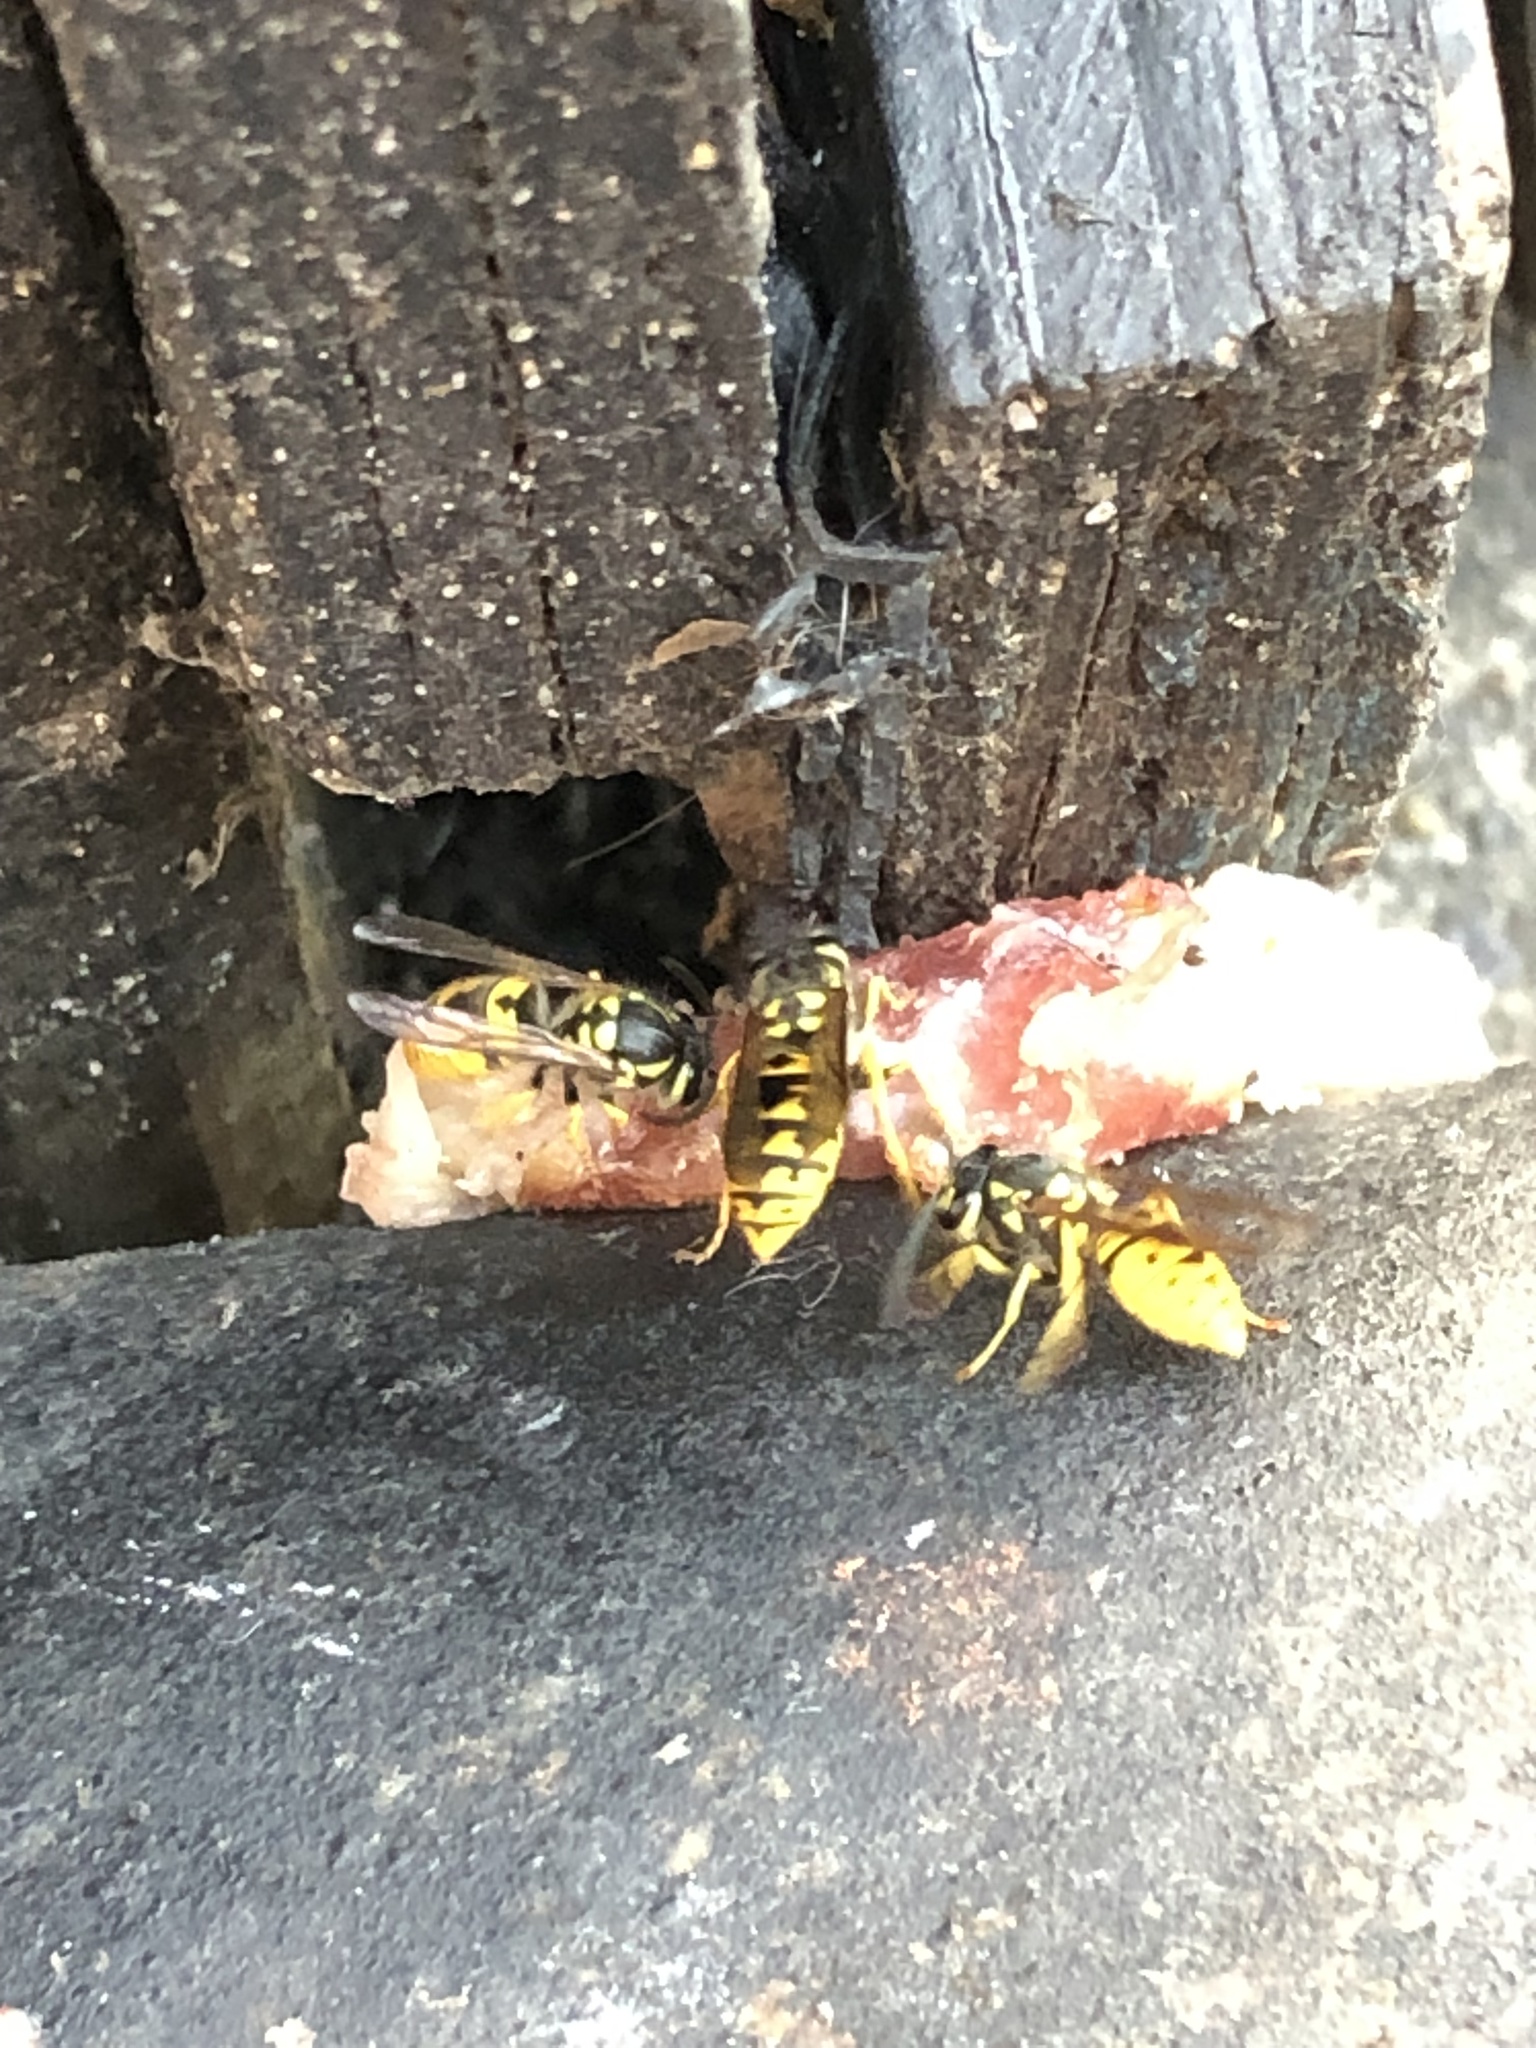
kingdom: Animalia
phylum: Arthropoda
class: Insecta
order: Hymenoptera
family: Vespidae
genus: Vespula
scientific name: Vespula germanica
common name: German wasp
